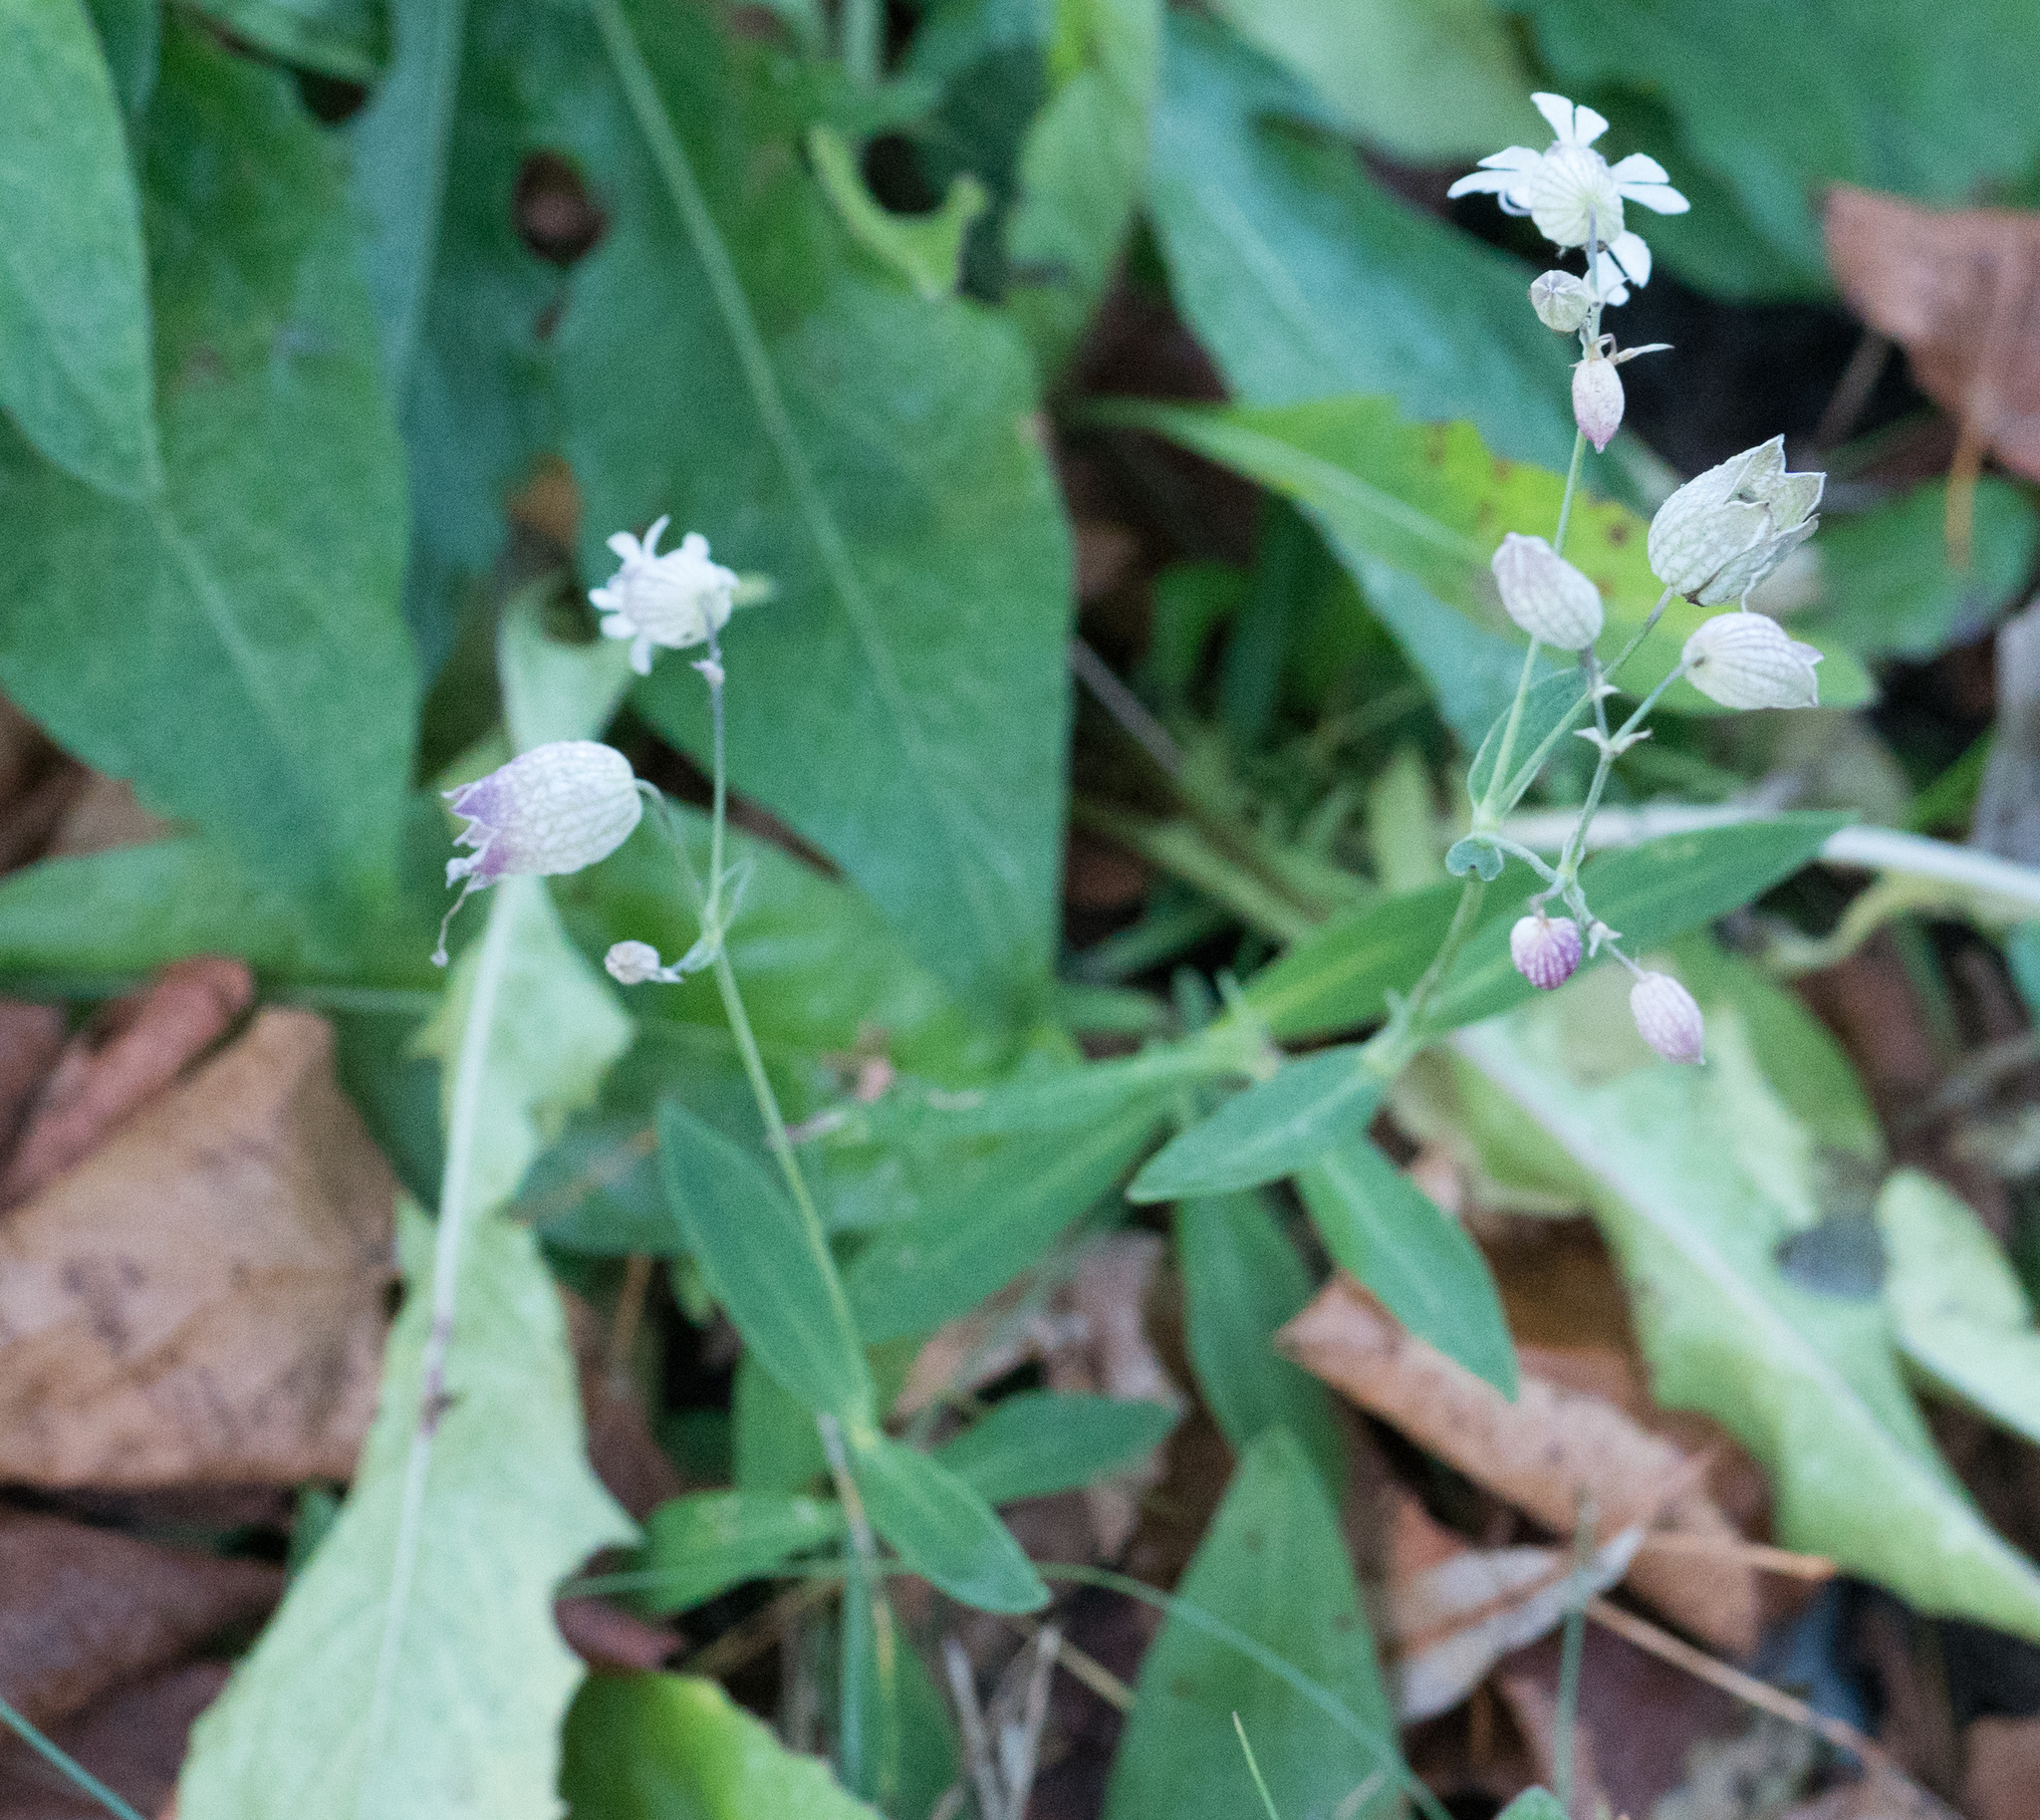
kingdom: Plantae
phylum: Tracheophyta
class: Magnoliopsida
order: Caryophyllales
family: Caryophyllaceae
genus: Silene
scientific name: Silene vulgaris
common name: Bladder campion
